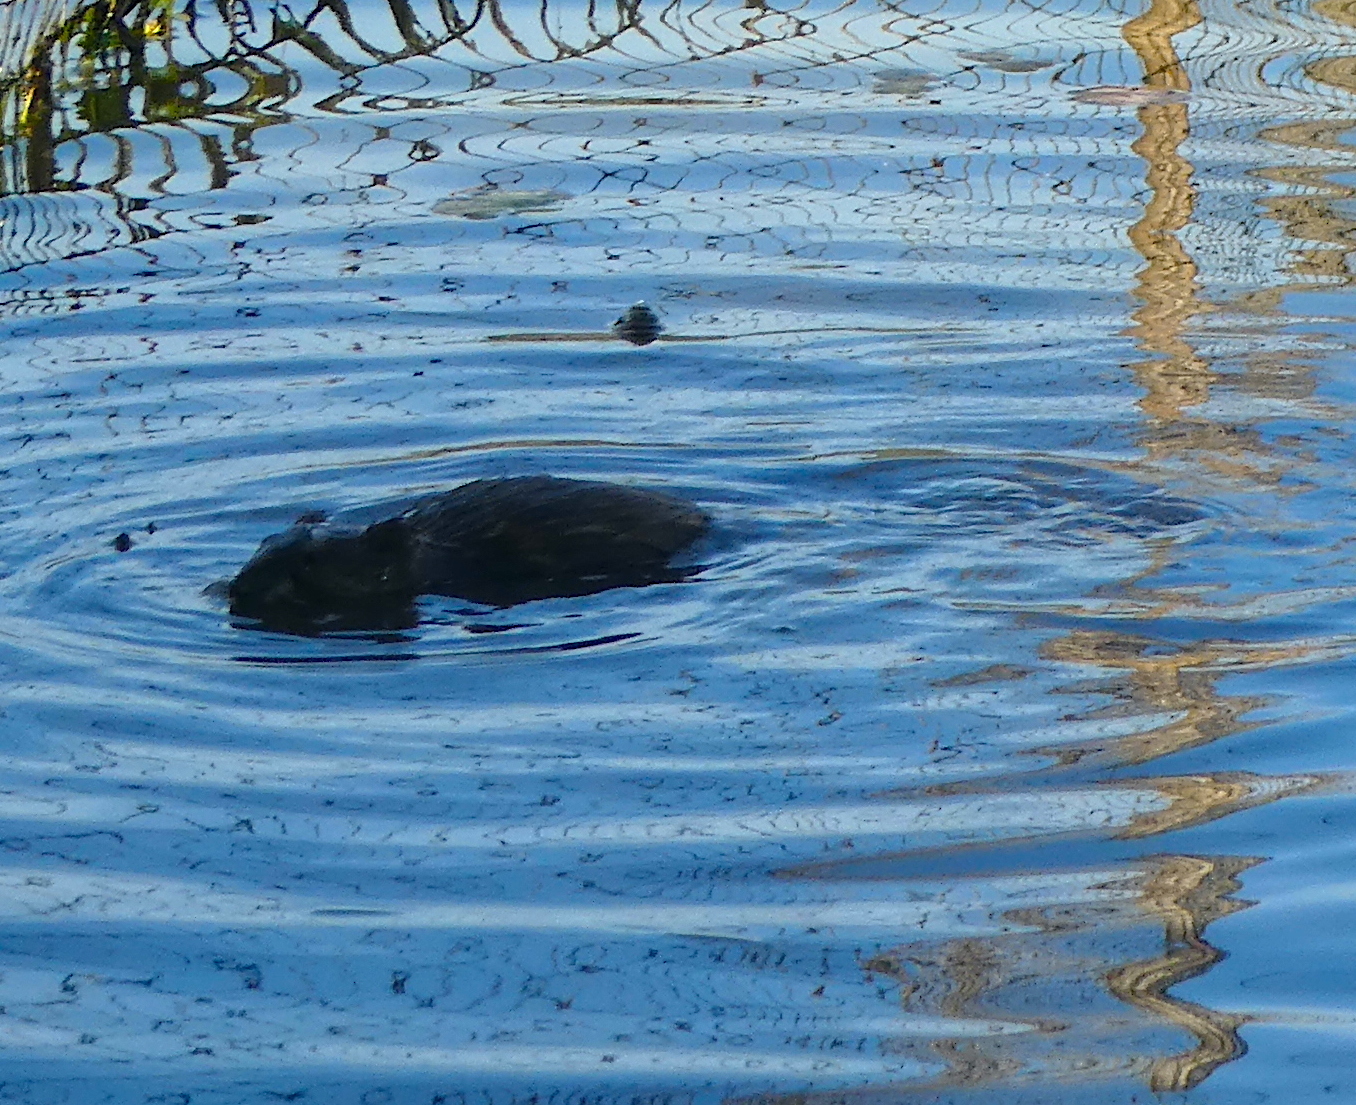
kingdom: Animalia
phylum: Chordata
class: Mammalia
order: Rodentia
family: Cricetidae
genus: Ondatra
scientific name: Ondatra zibethicus
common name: Muskrat
